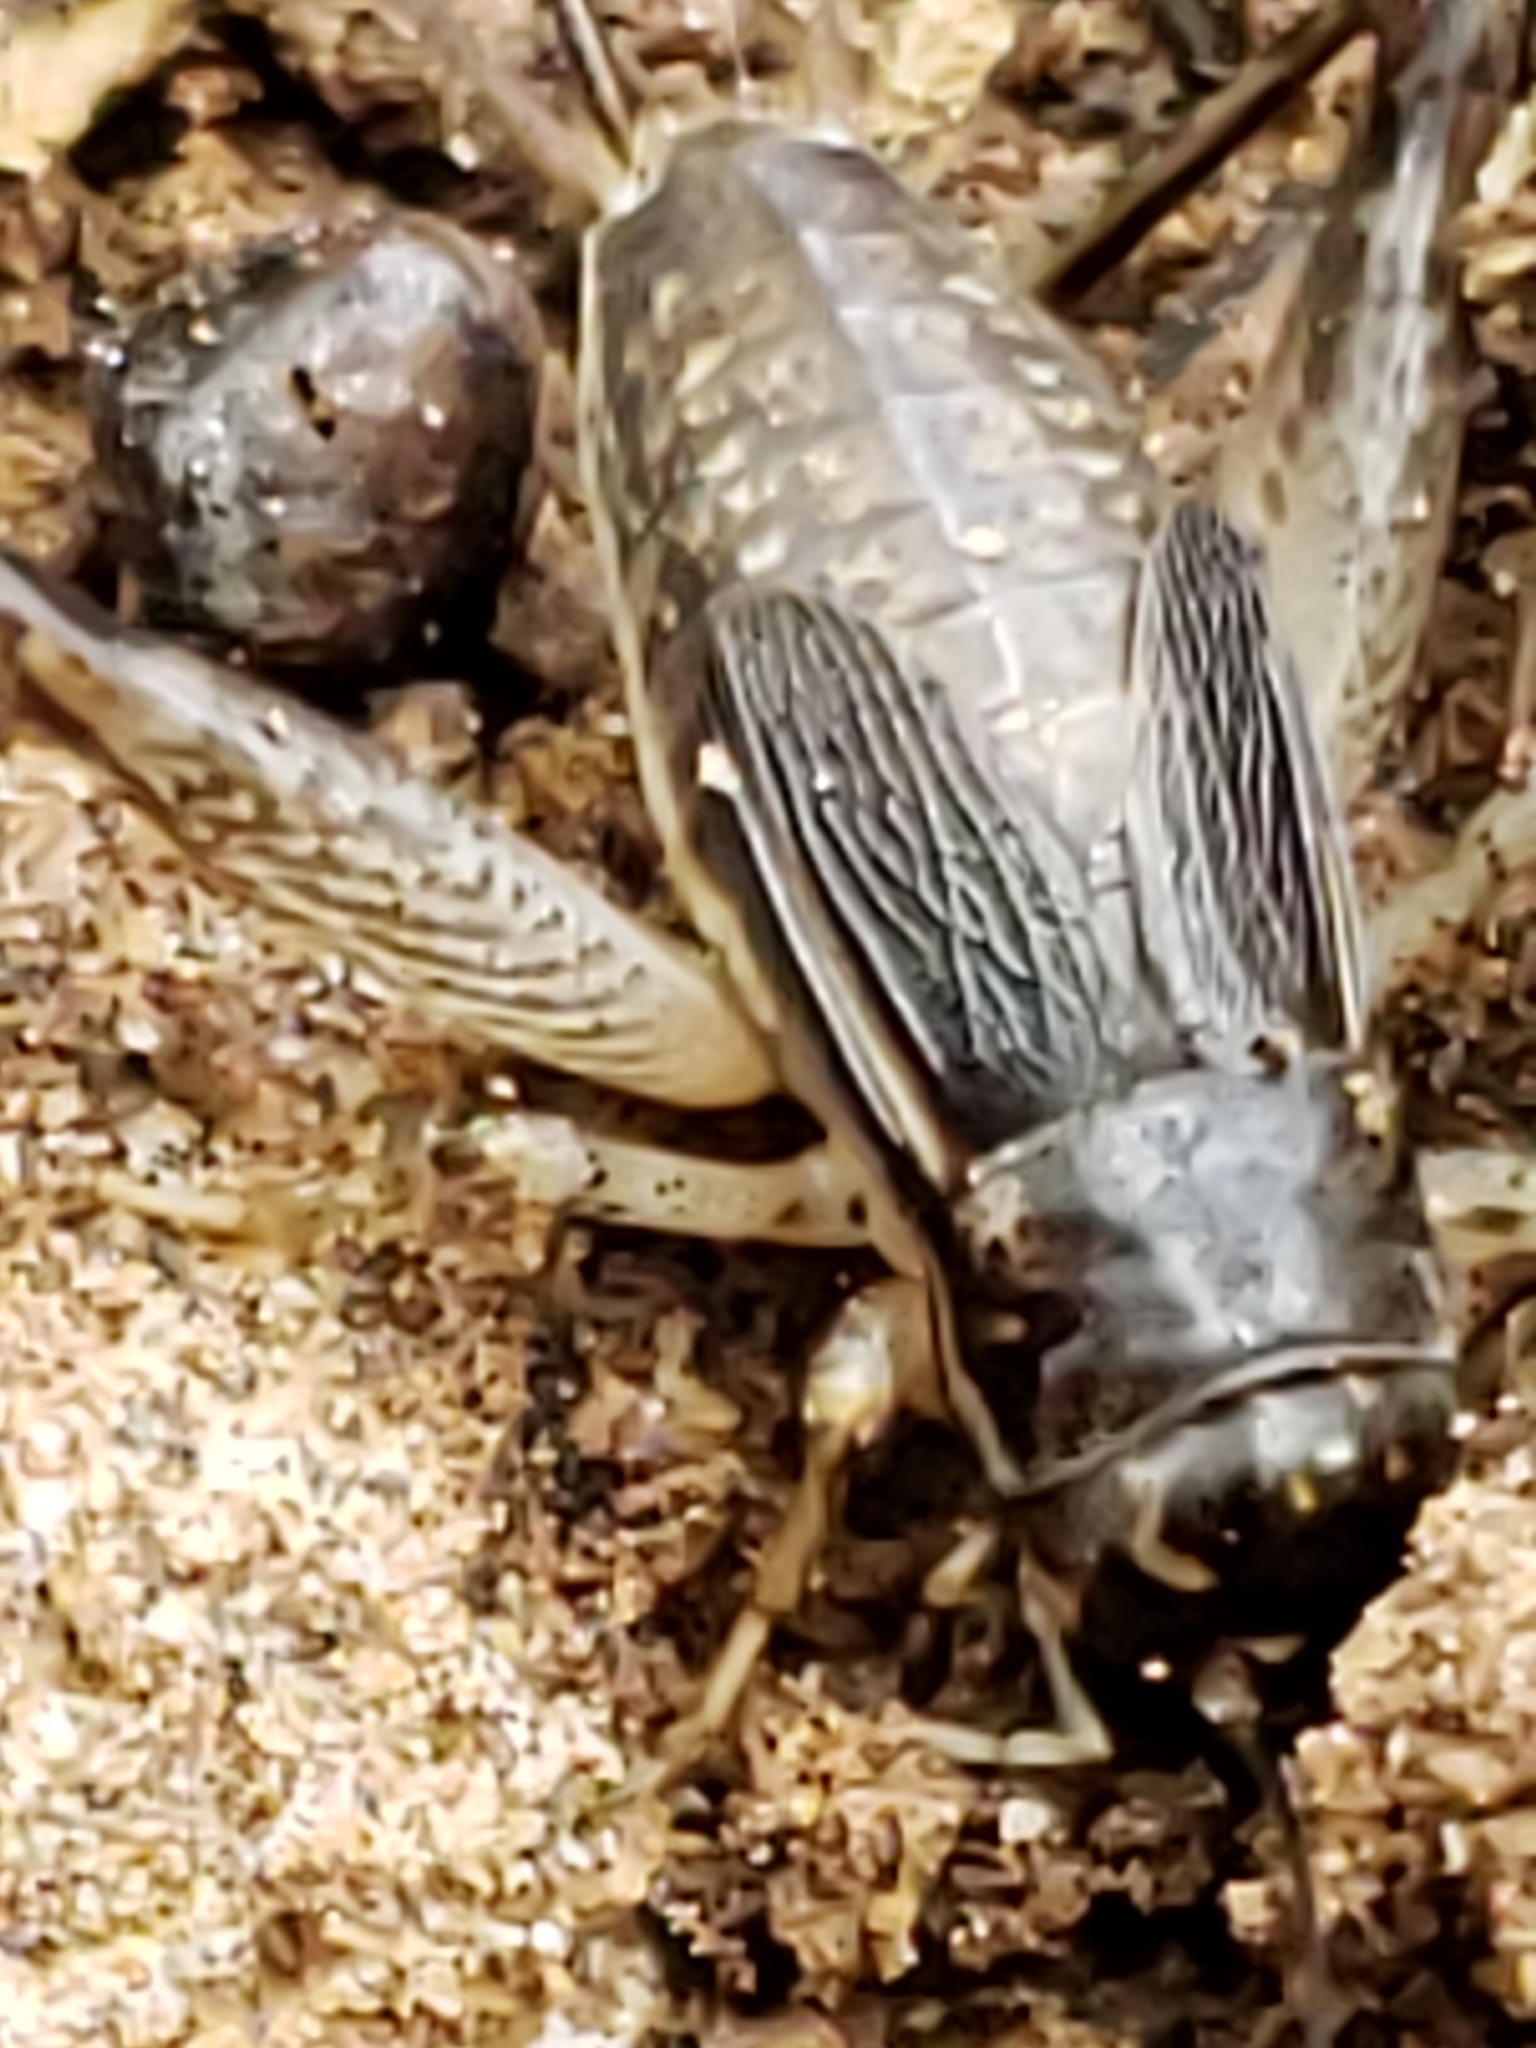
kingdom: Animalia
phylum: Arthropoda
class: Insecta
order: Orthoptera
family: Gryllidae
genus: Velarifictorus
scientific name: Velarifictorus micado
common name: Japanese burrowing cricket
